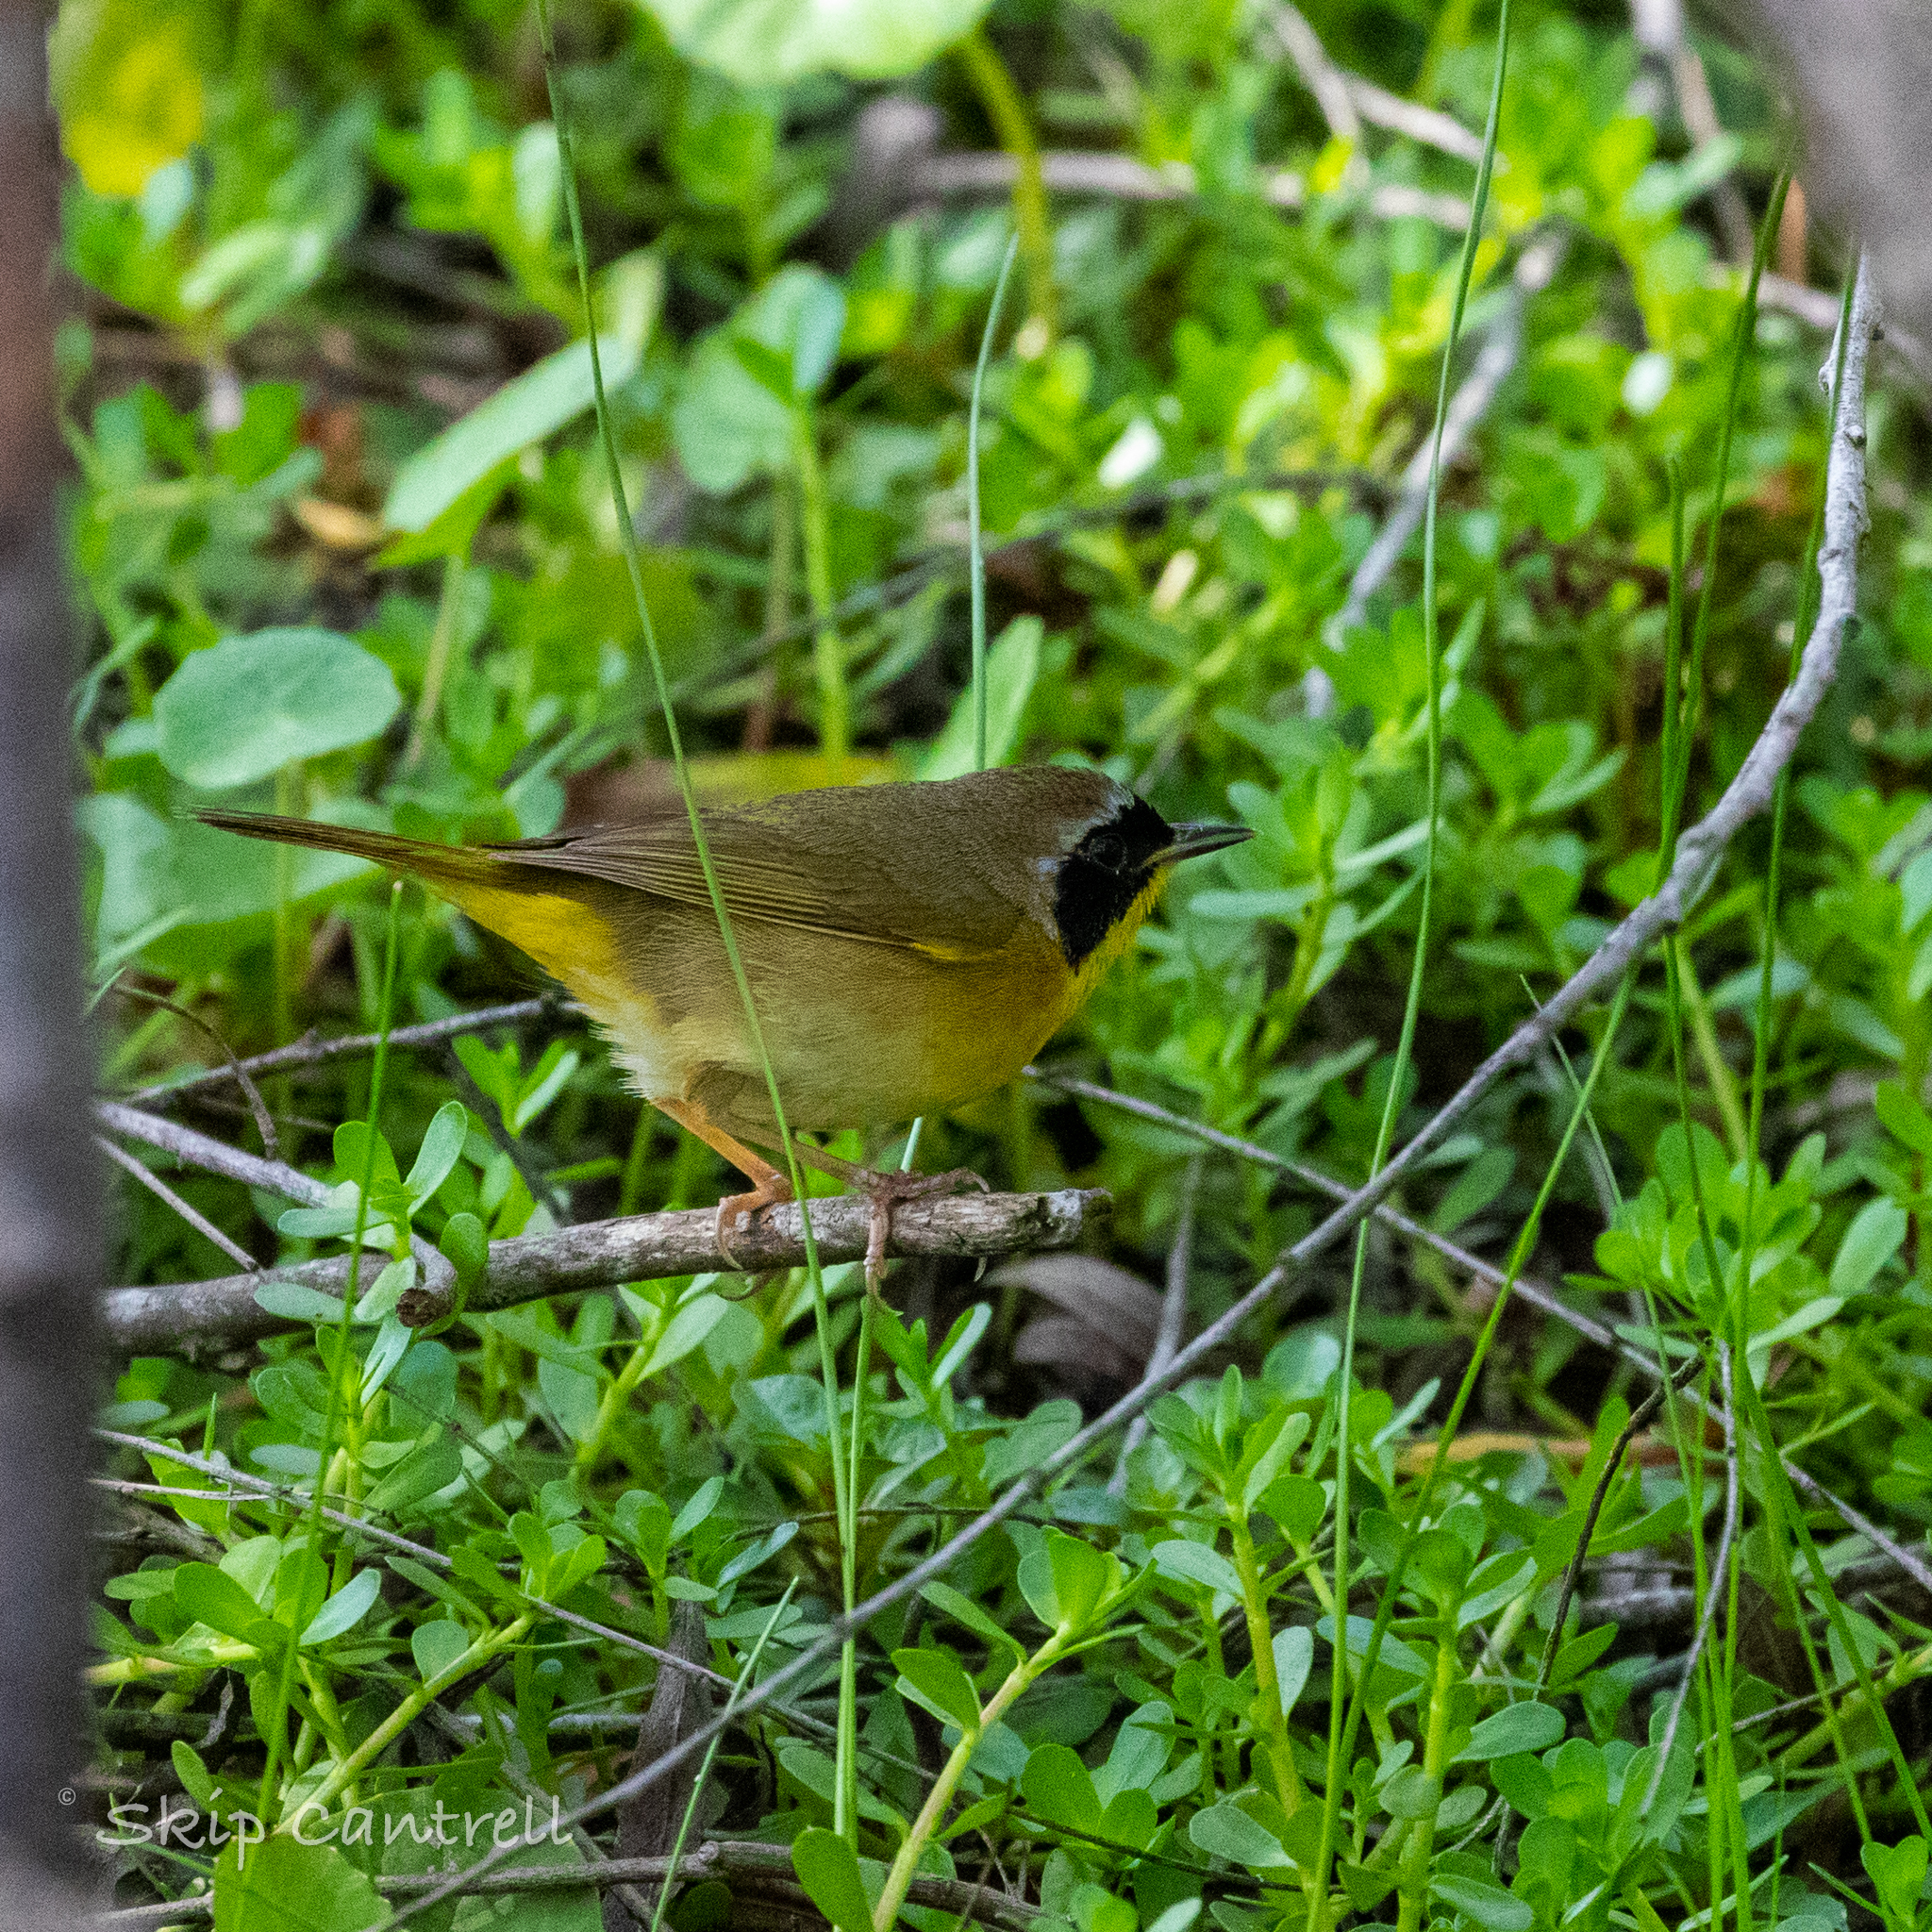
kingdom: Animalia
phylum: Chordata
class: Aves
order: Passeriformes
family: Parulidae
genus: Geothlypis
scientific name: Geothlypis trichas
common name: Common yellowthroat
